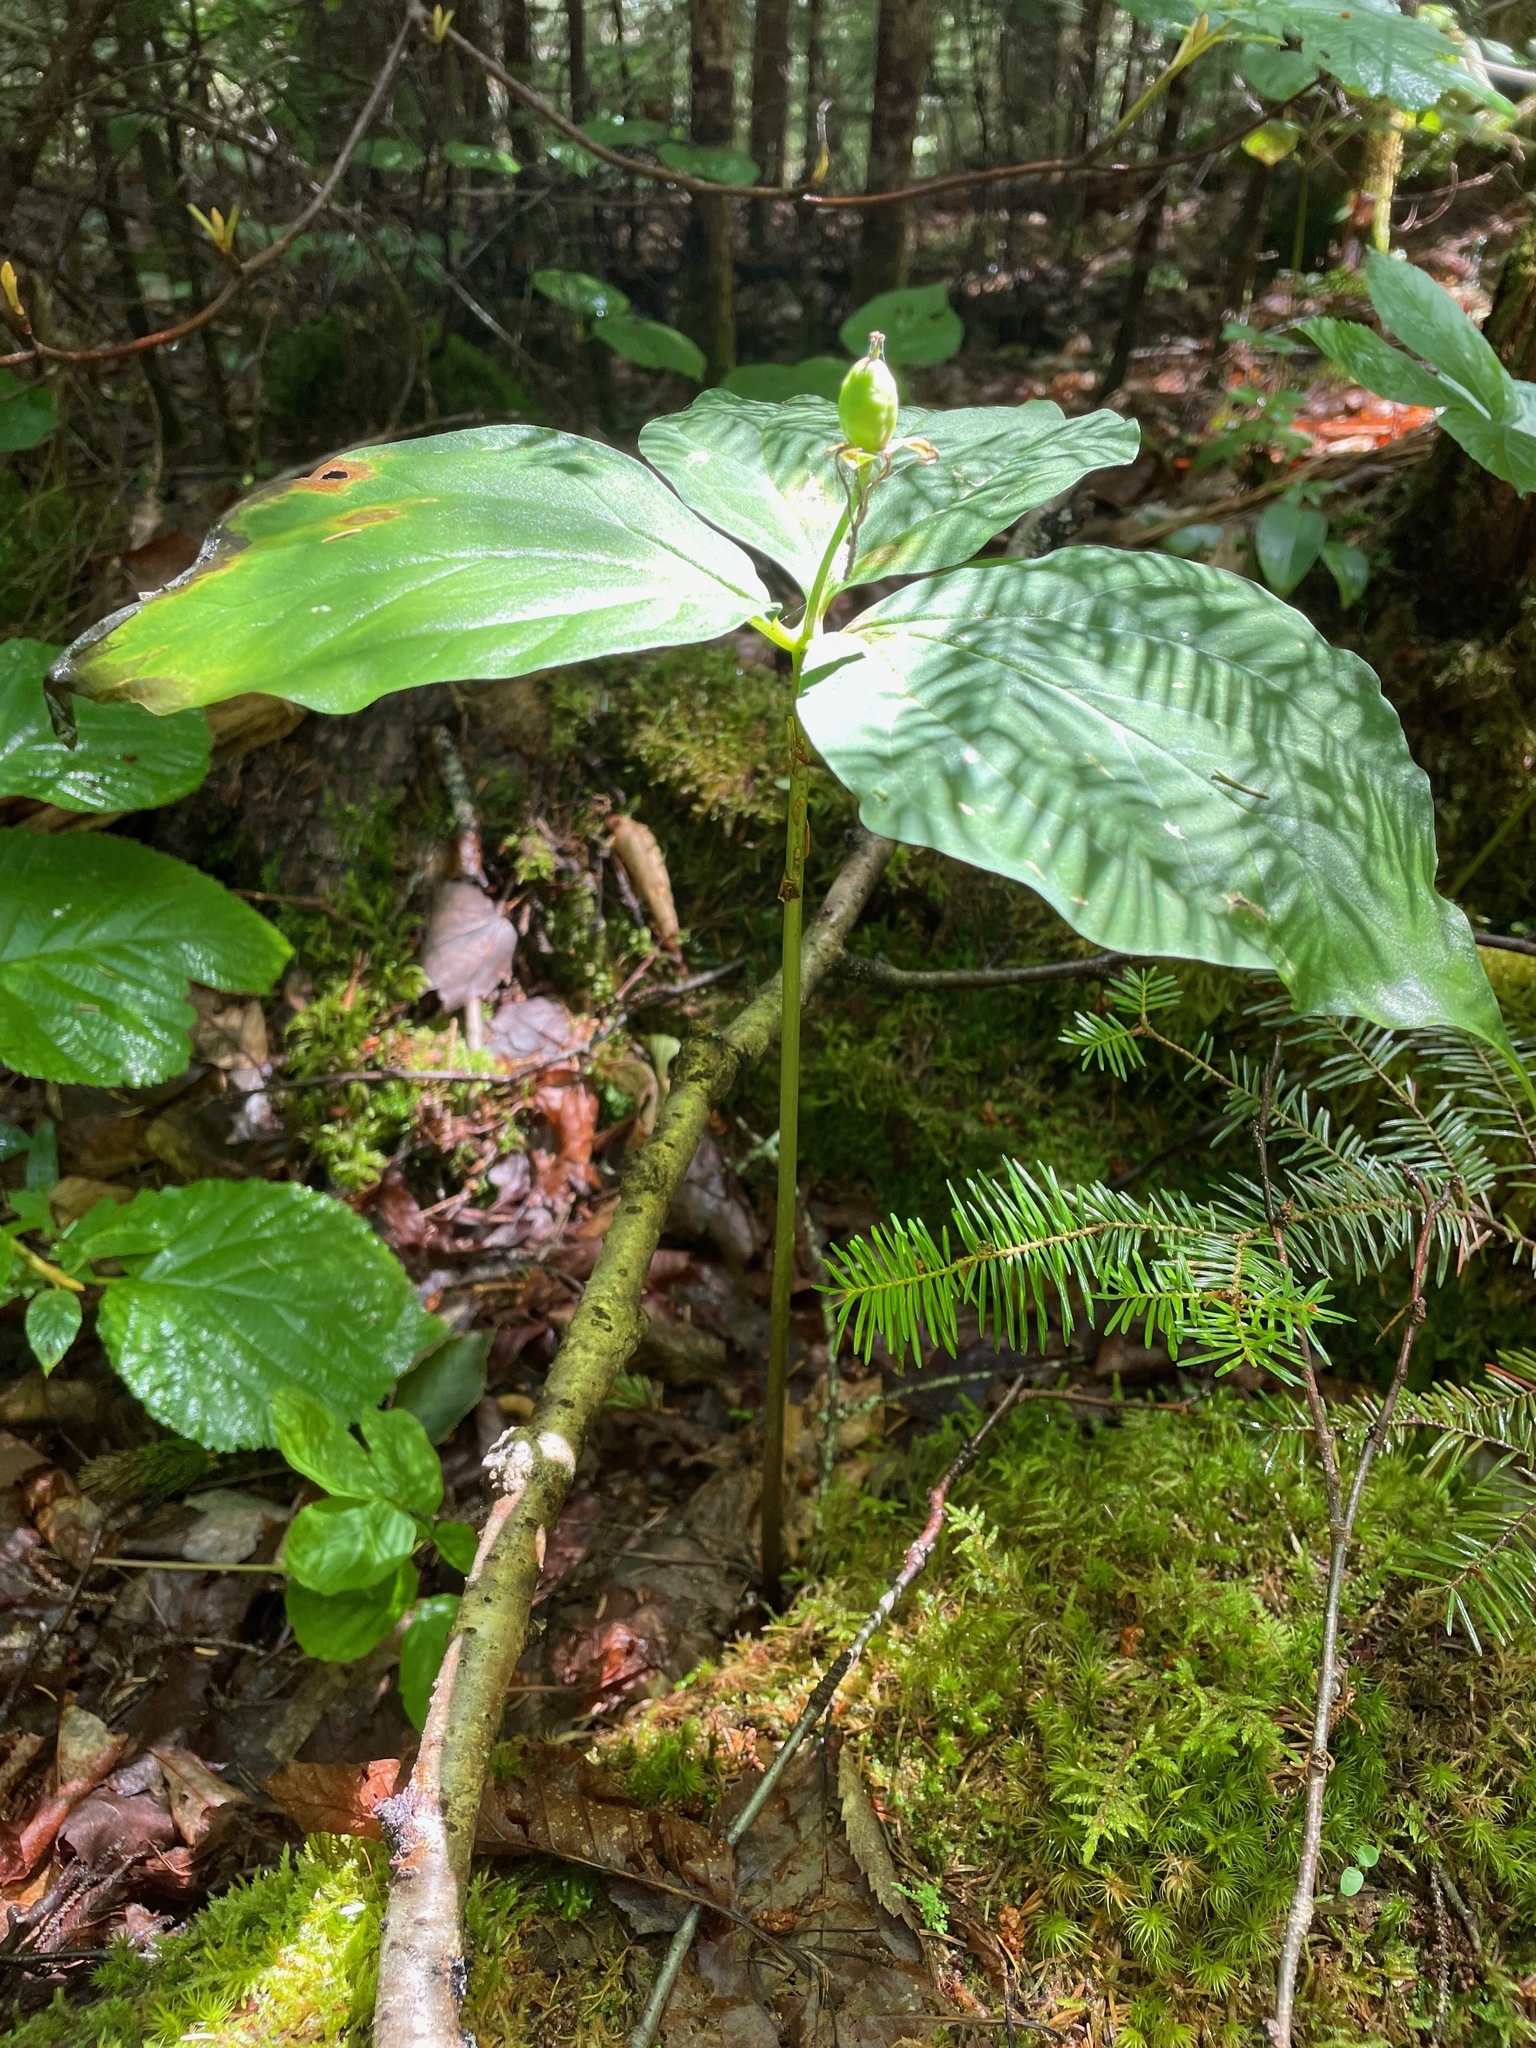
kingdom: Plantae
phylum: Tracheophyta
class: Liliopsida
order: Liliales
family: Melanthiaceae
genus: Trillium
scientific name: Trillium undulatum
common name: Paint trillium
